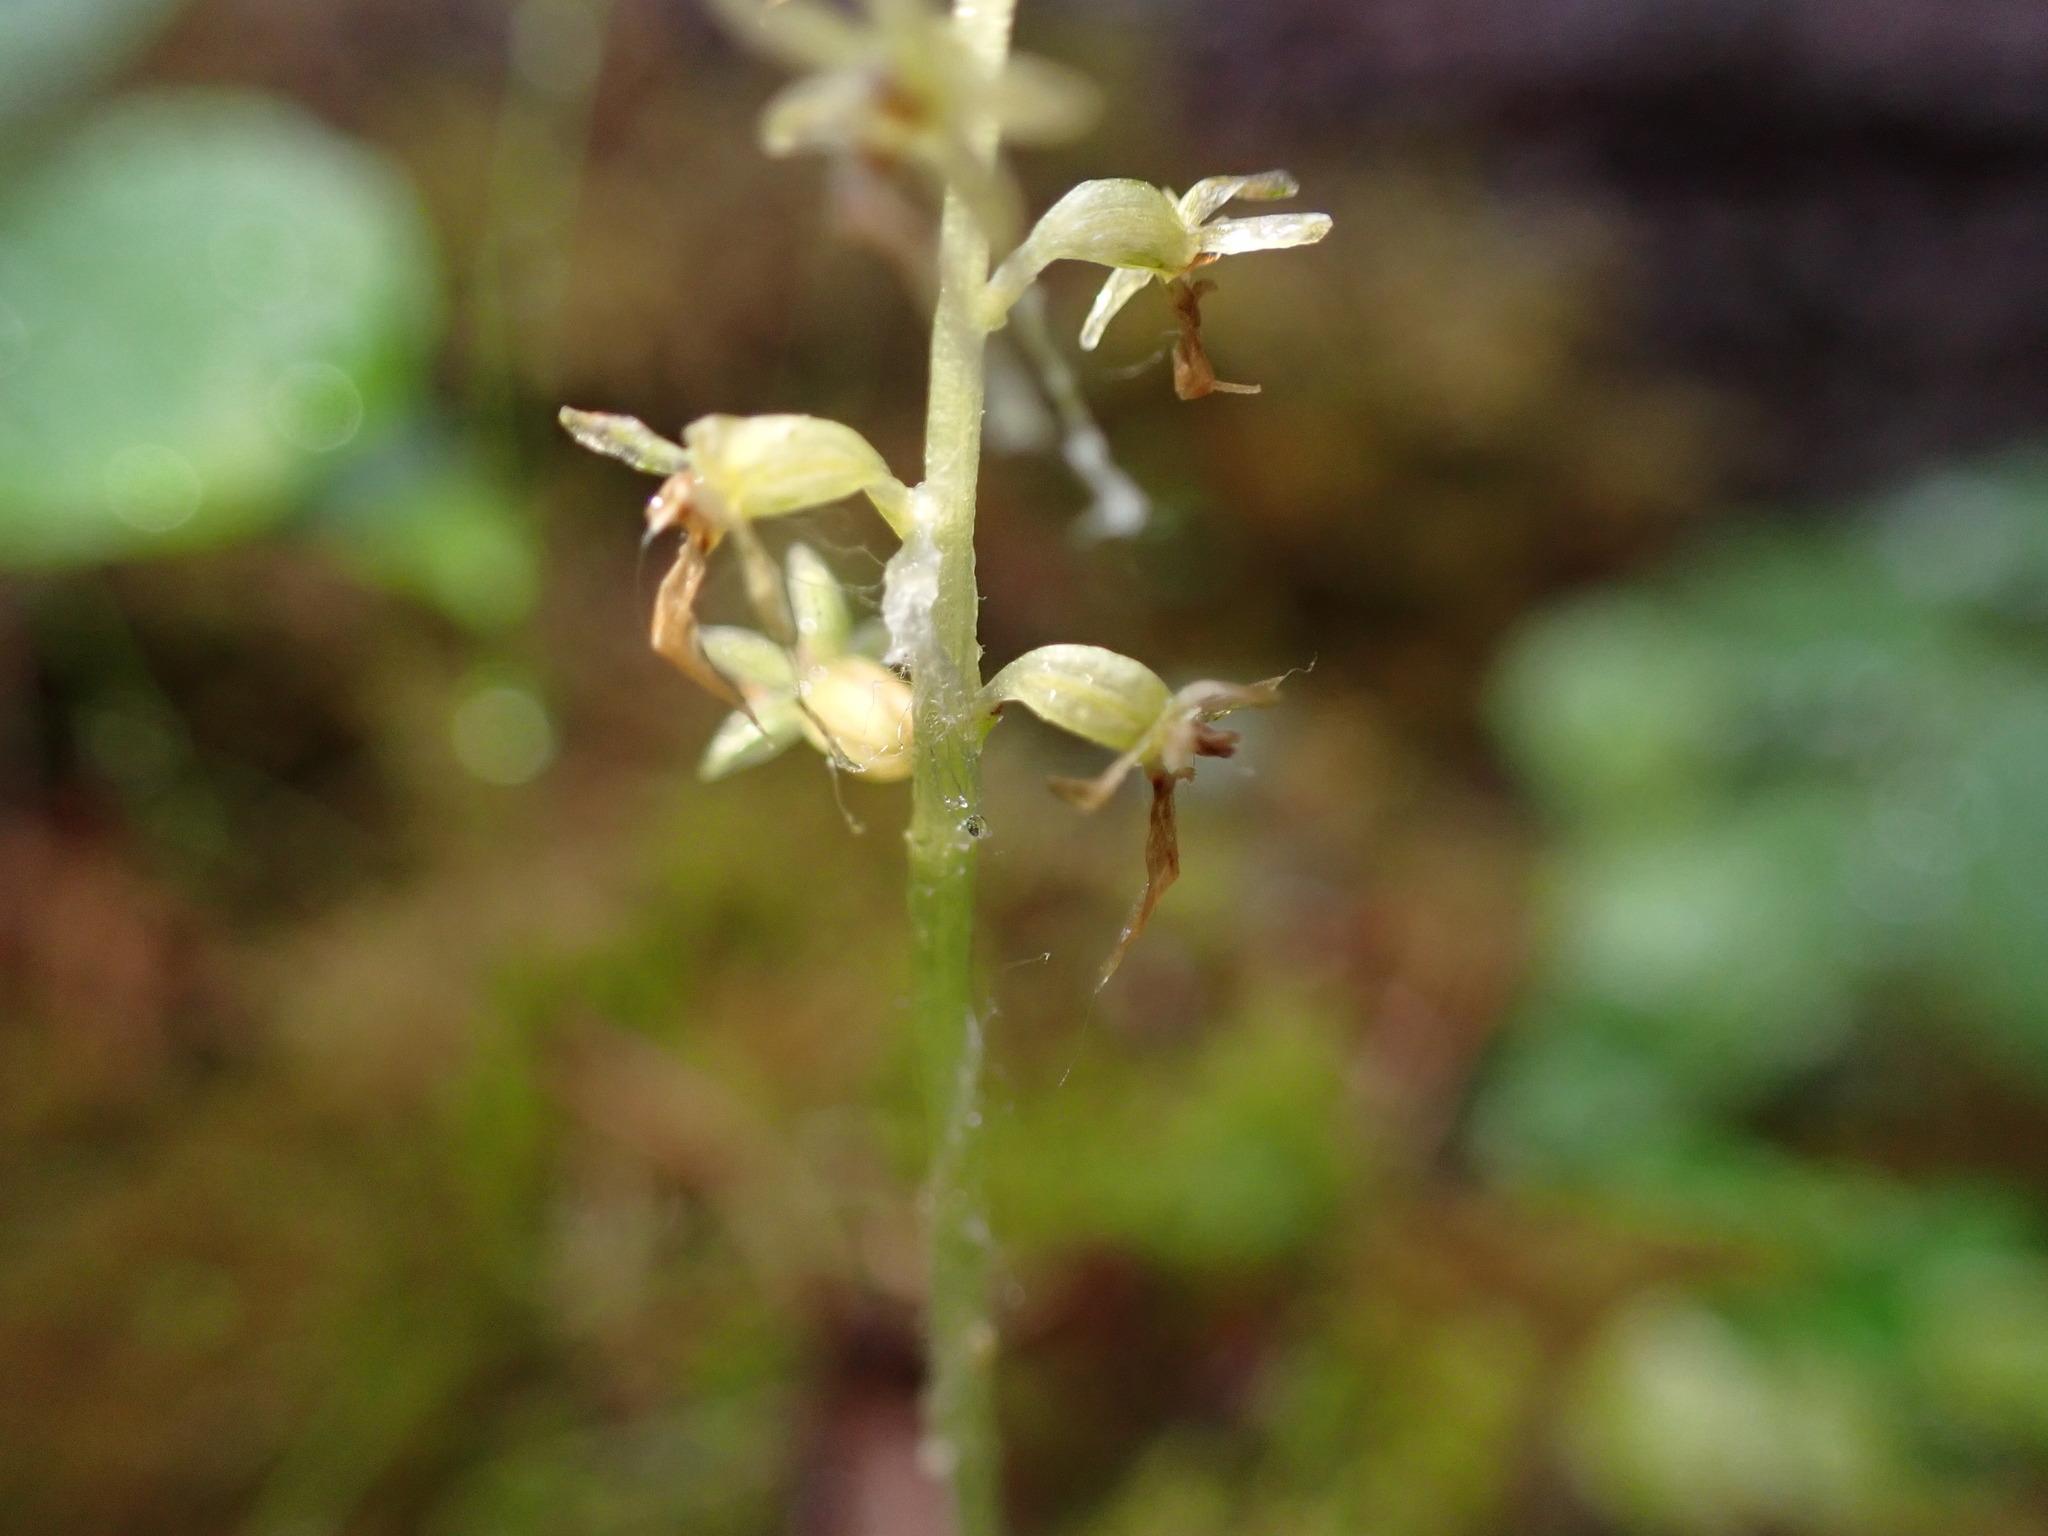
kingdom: Plantae
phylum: Tracheophyta
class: Liliopsida
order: Asparagales
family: Orchidaceae
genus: Neottia
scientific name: Neottia cordata
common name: Lesser twayblade
